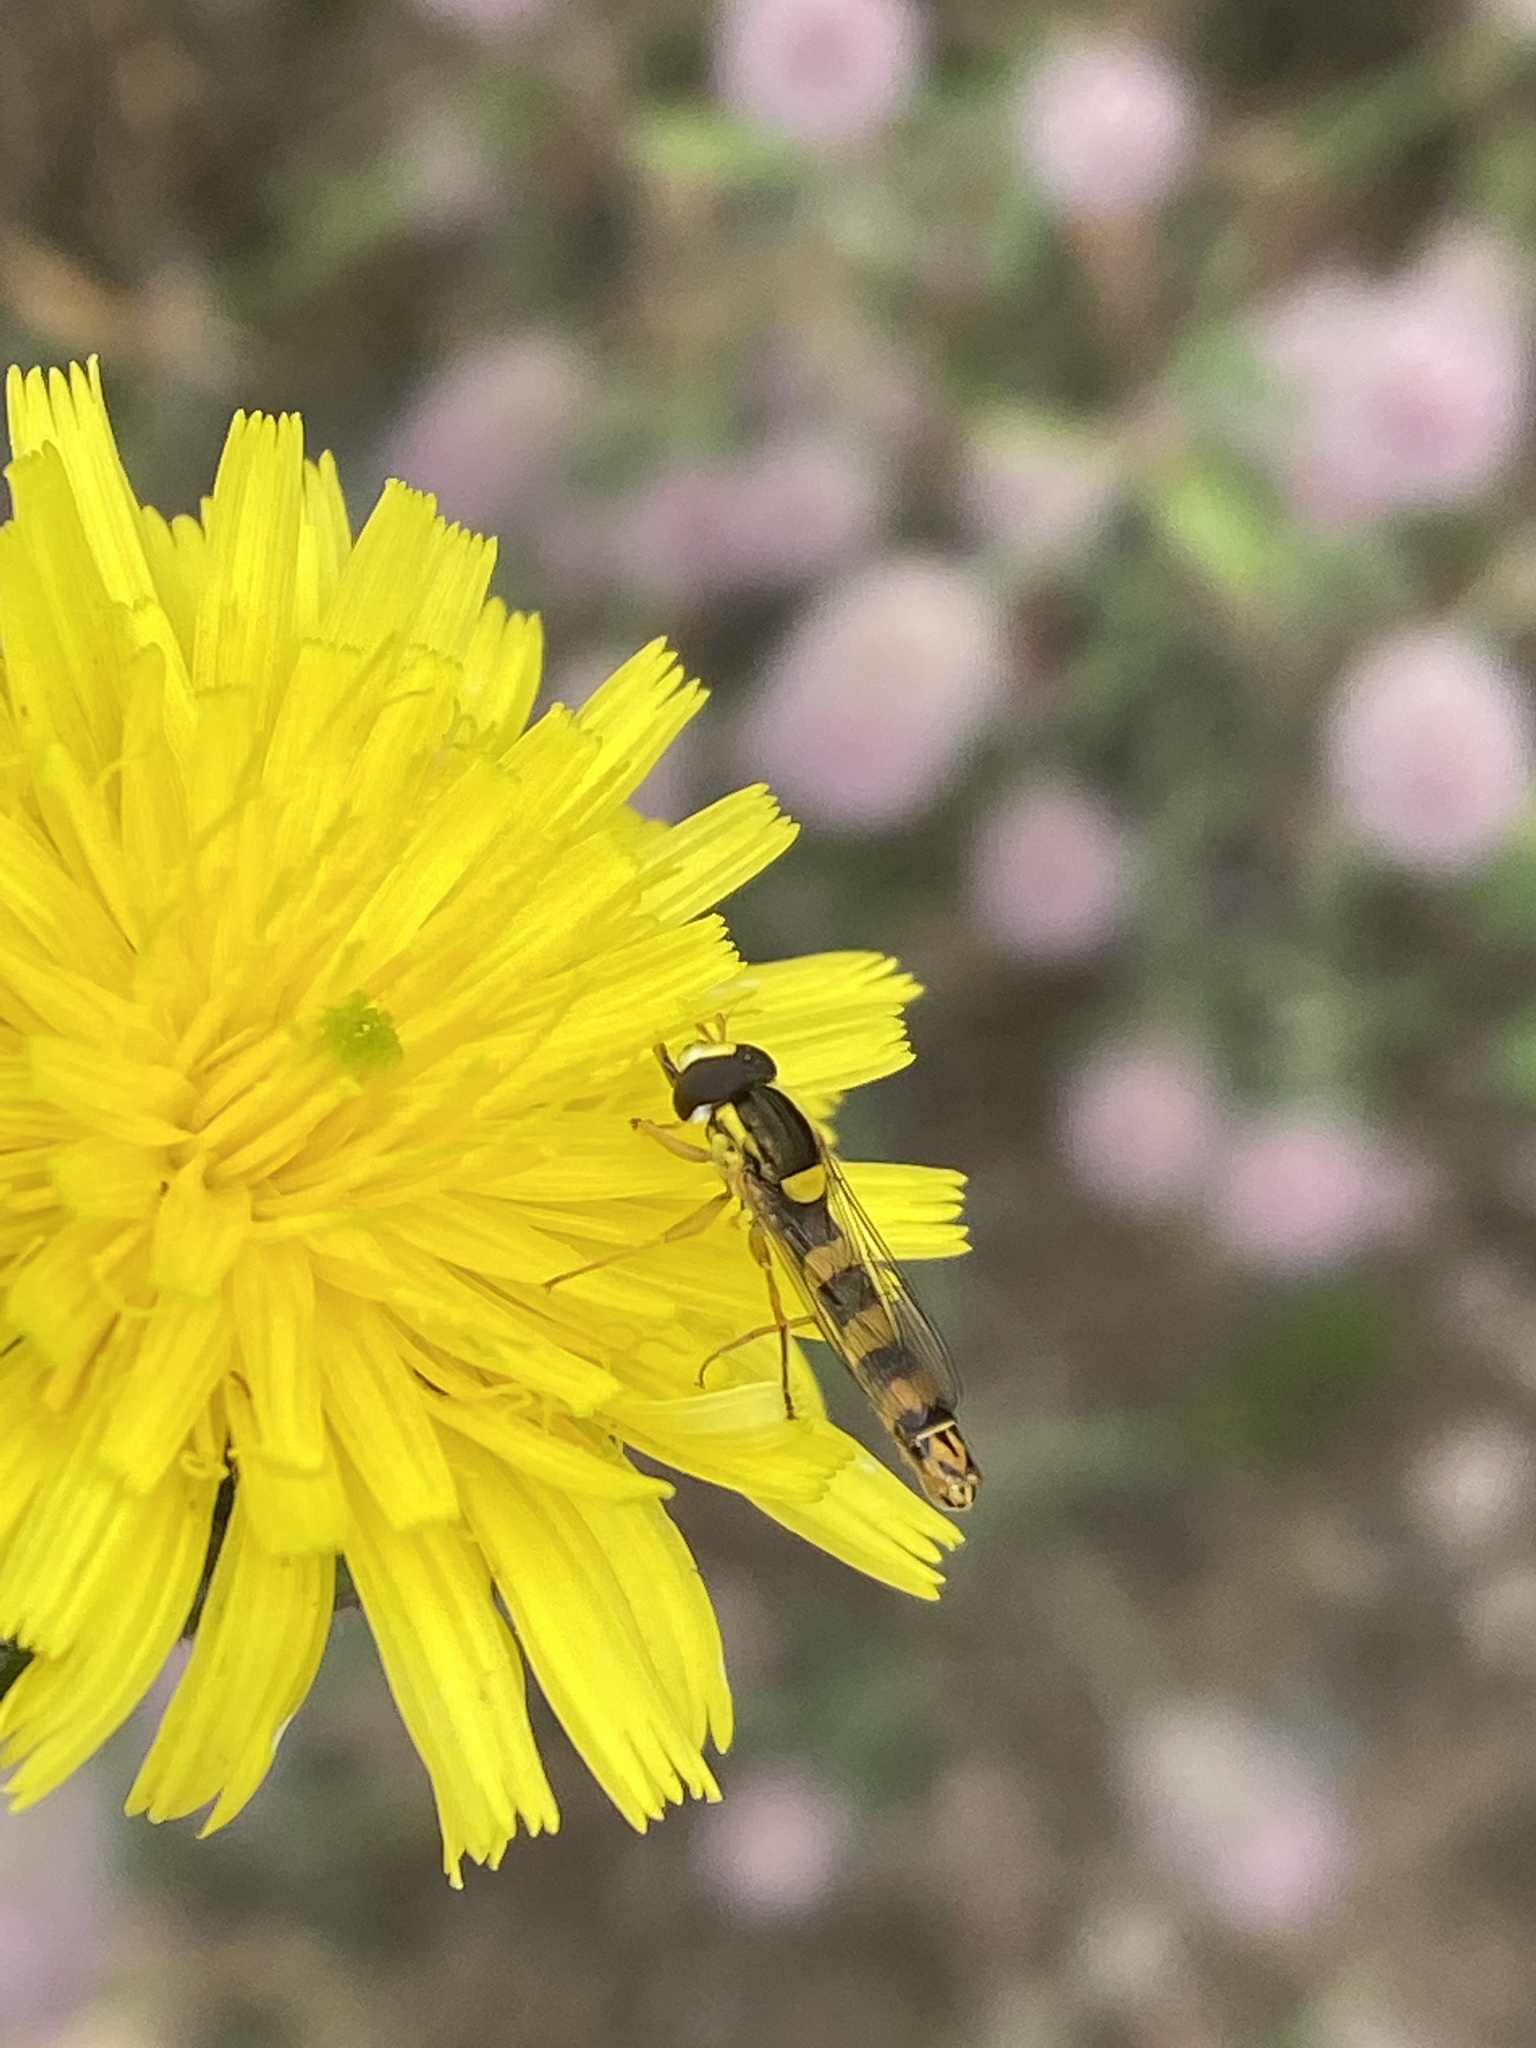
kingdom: Animalia
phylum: Arthropoda
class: Insecta
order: Diptera
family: Syrphidae
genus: Sphaerophoria
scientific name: Sphaerophoria scripta
